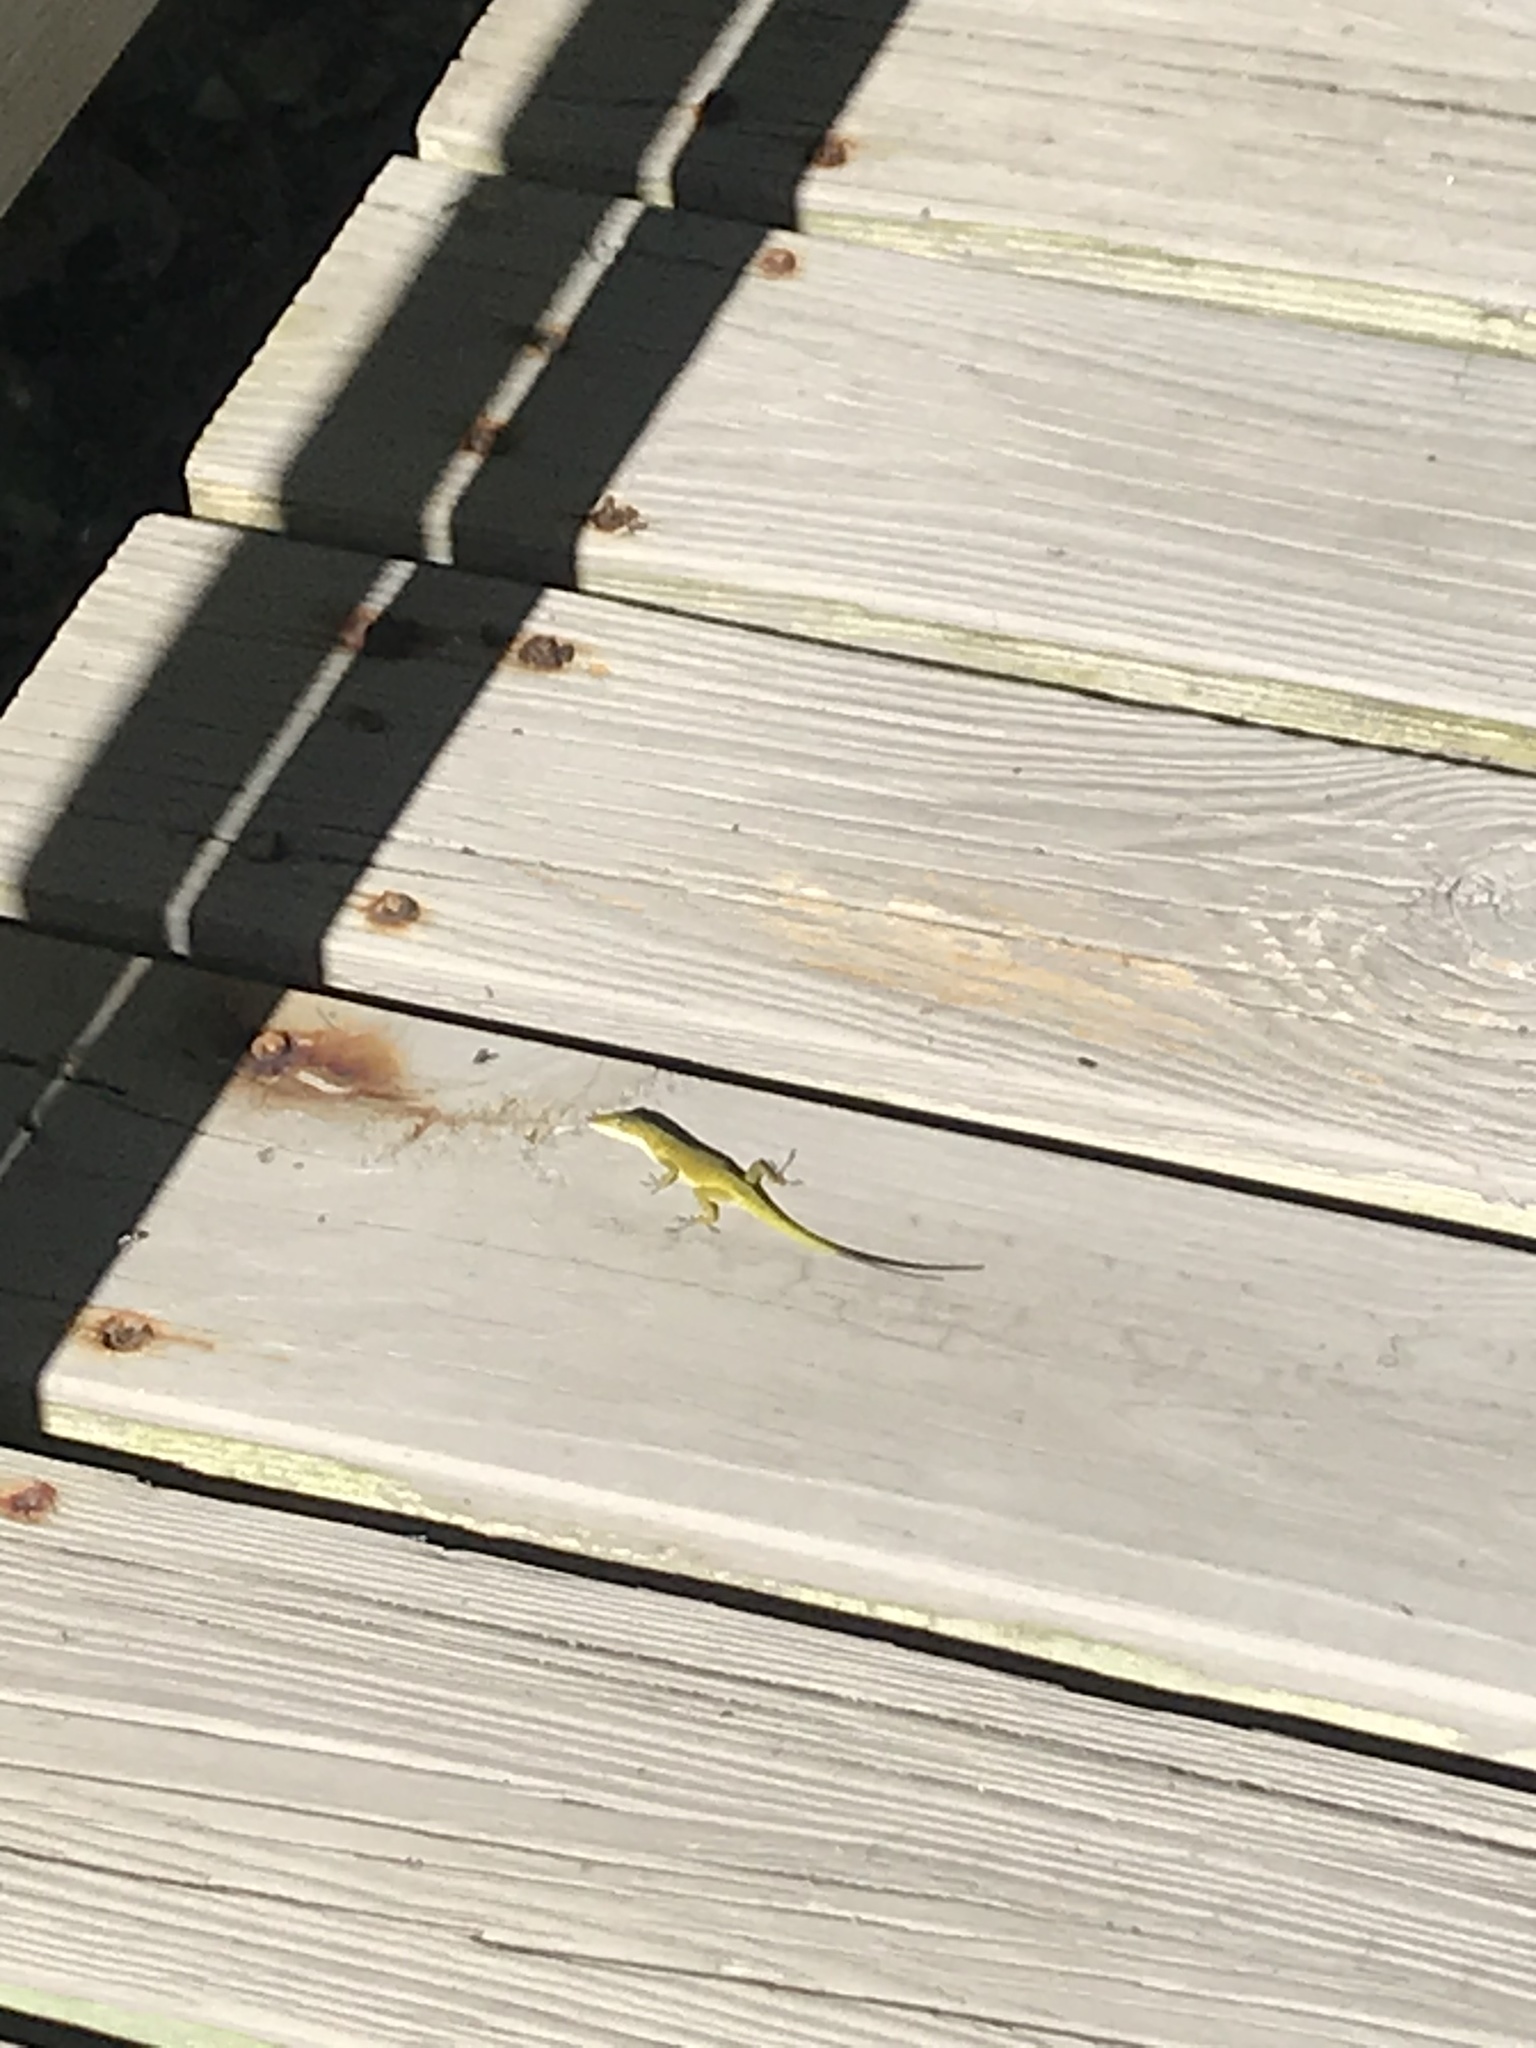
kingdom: Animalia
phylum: Chordata
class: Squamata
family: Dactyloidae
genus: Anolis
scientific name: Anolis carolinensis
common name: Green anole
